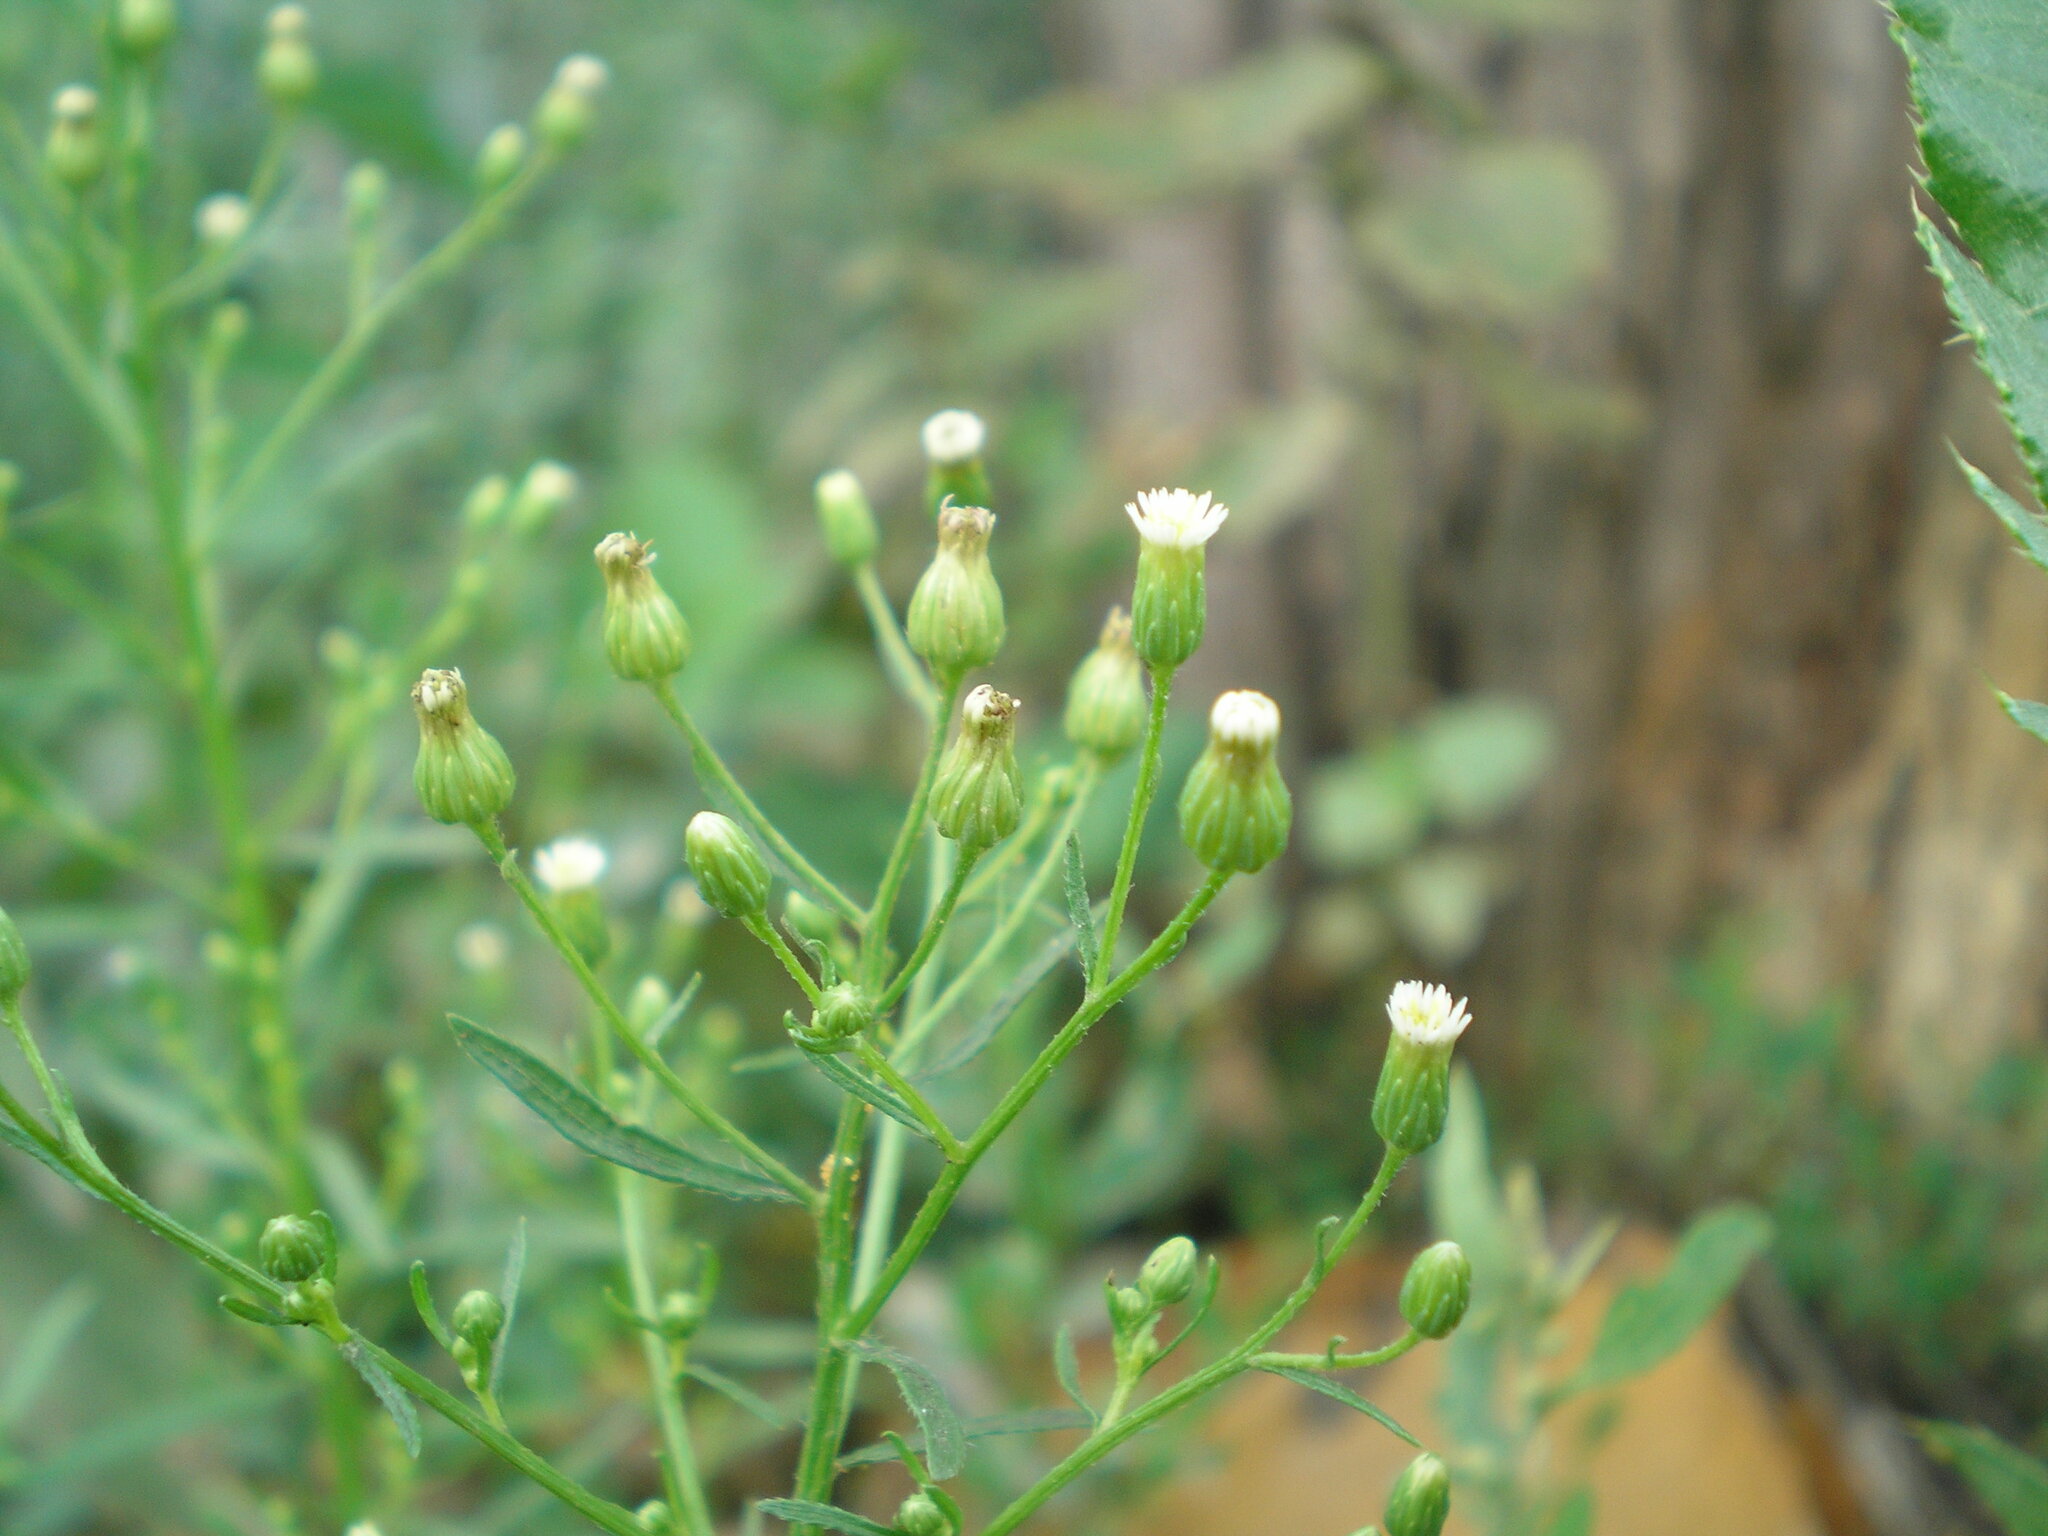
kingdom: Plantae
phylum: Tracheophyta
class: Magnoliopsida
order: Asterales
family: Asteraceae
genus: Erigeron
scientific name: Erigeron canadensis
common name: Canadian fleabane
